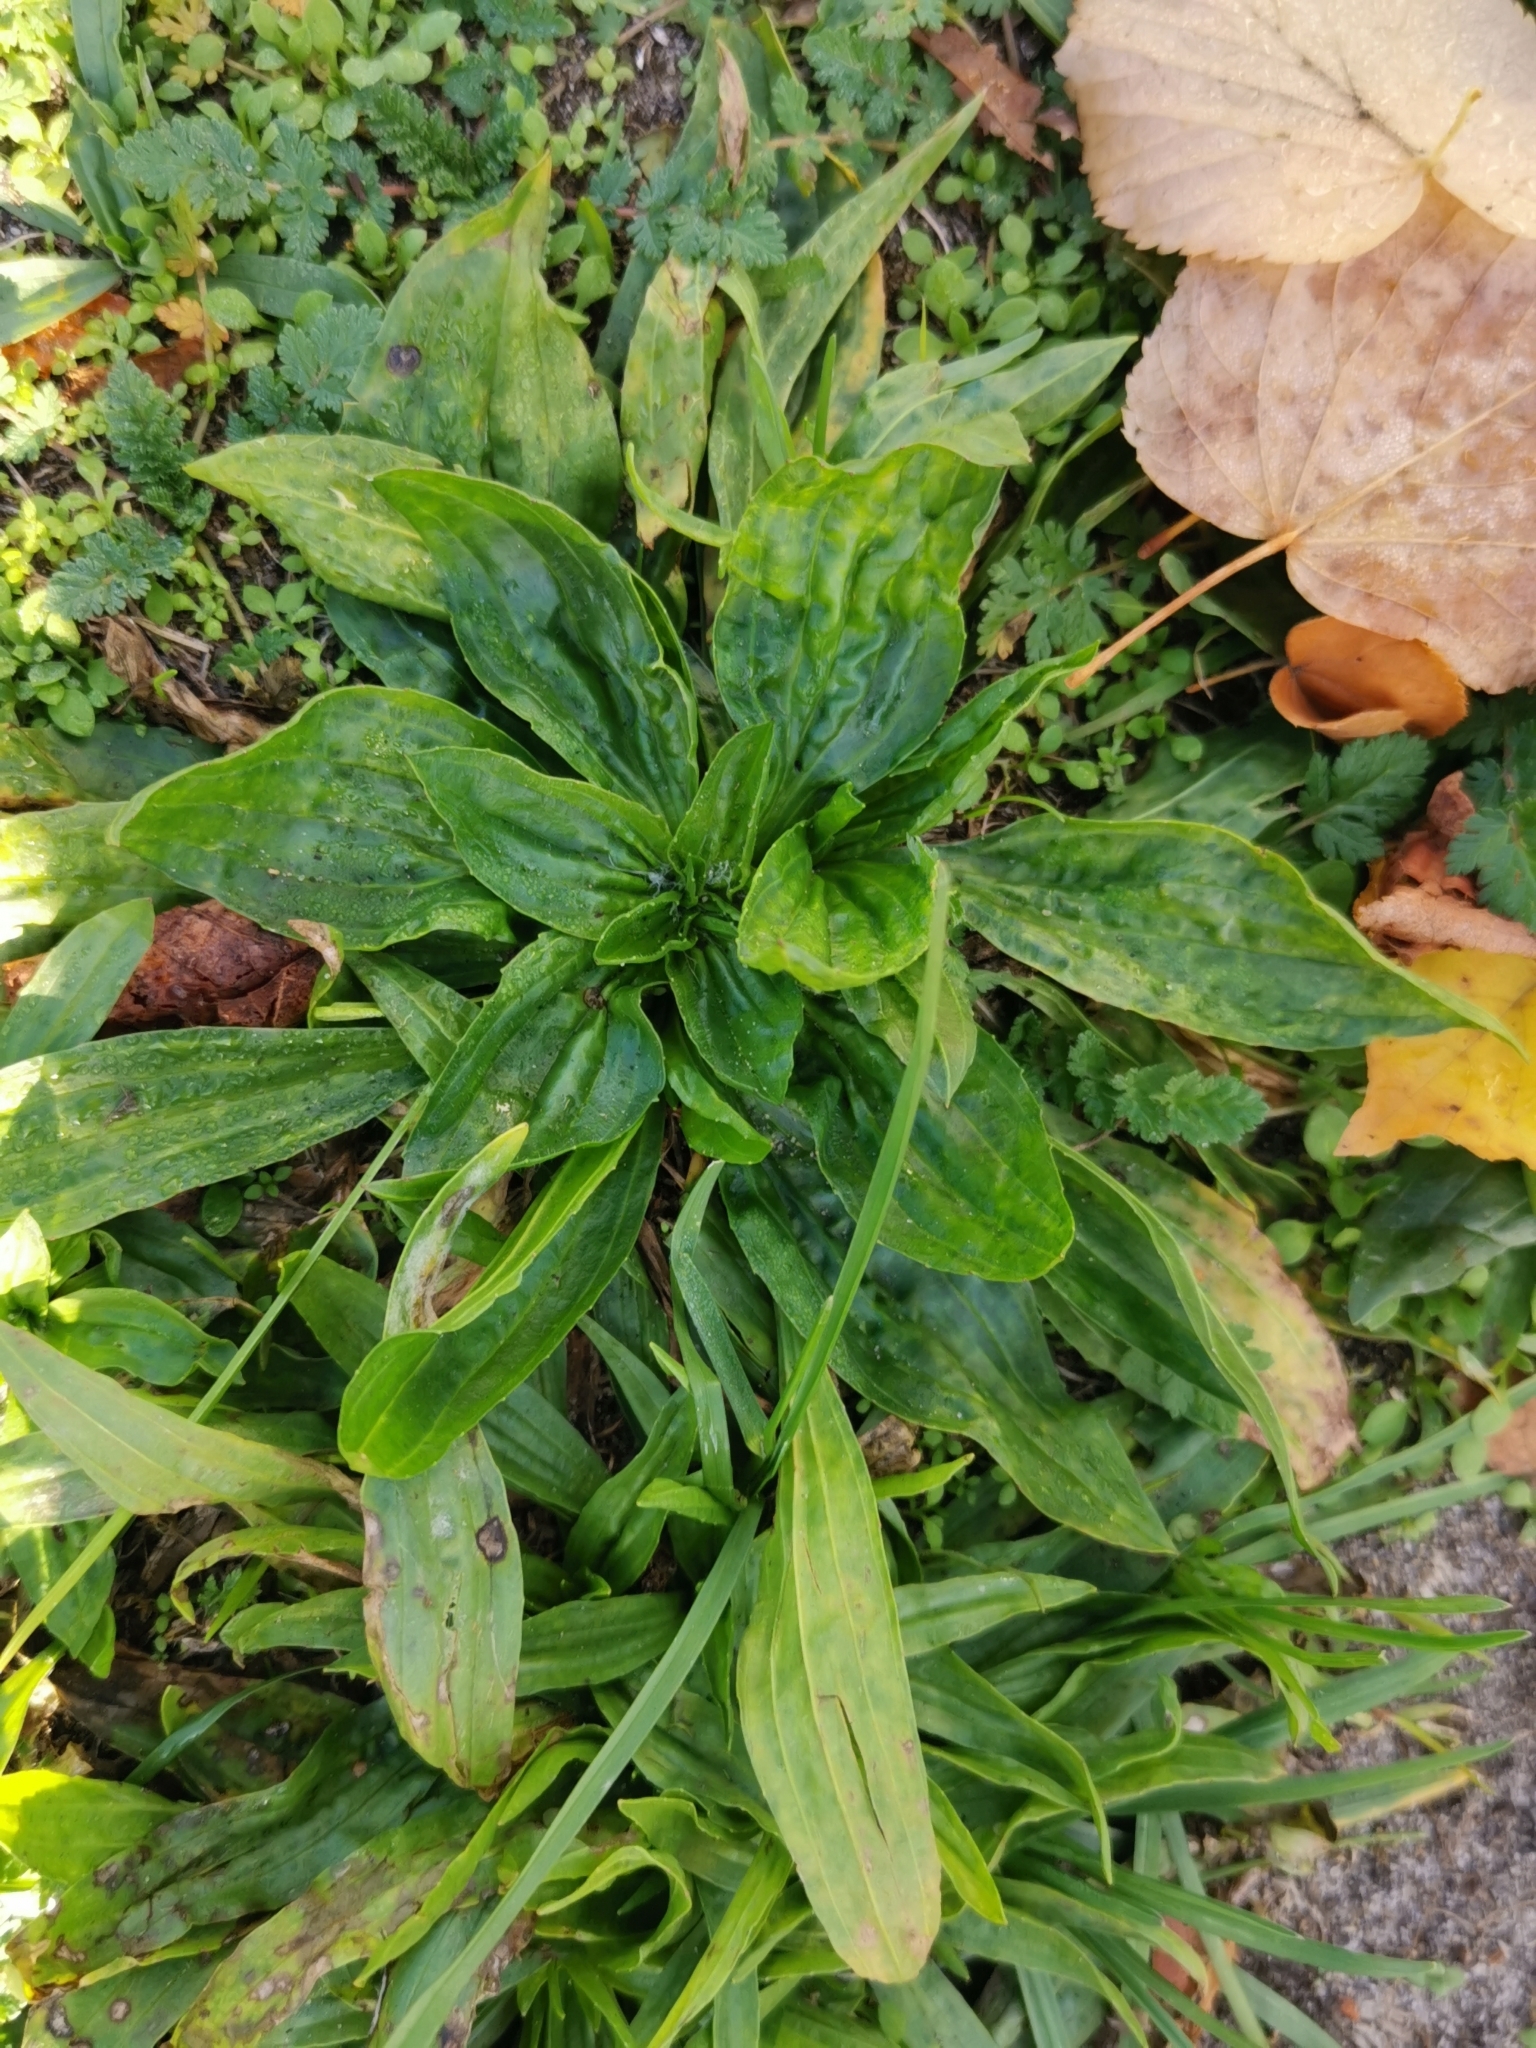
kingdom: Plantae
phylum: Tracheophyta
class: Magnoliopsida
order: Lamiales
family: Plantaginaceae
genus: Plantago
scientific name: Plantago lanceolata
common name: Ribwort plantain
